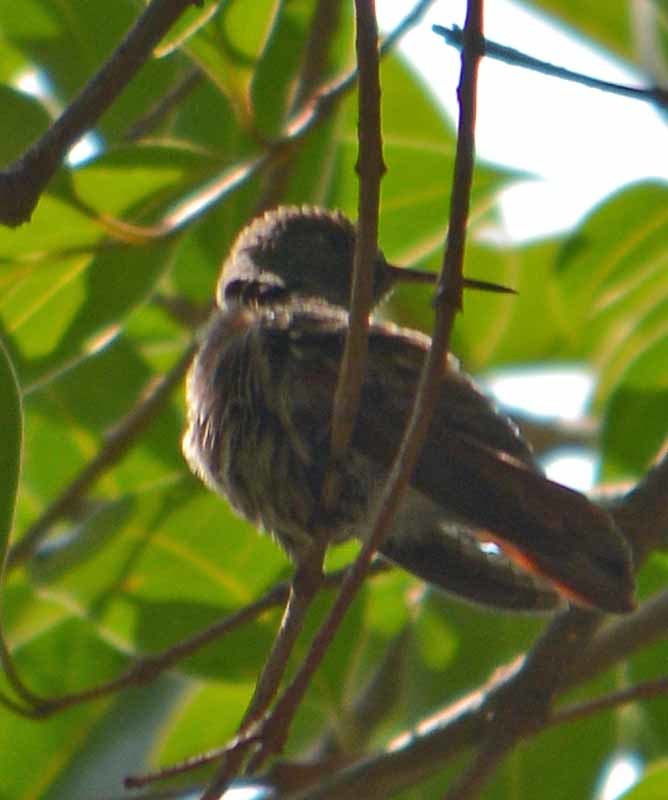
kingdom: Animalia
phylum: Chordata
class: Aves
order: Apodiformes
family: Trochilidae
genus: Saucerottia
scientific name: Saucerottia beryllina
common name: Berylline hummingbird
